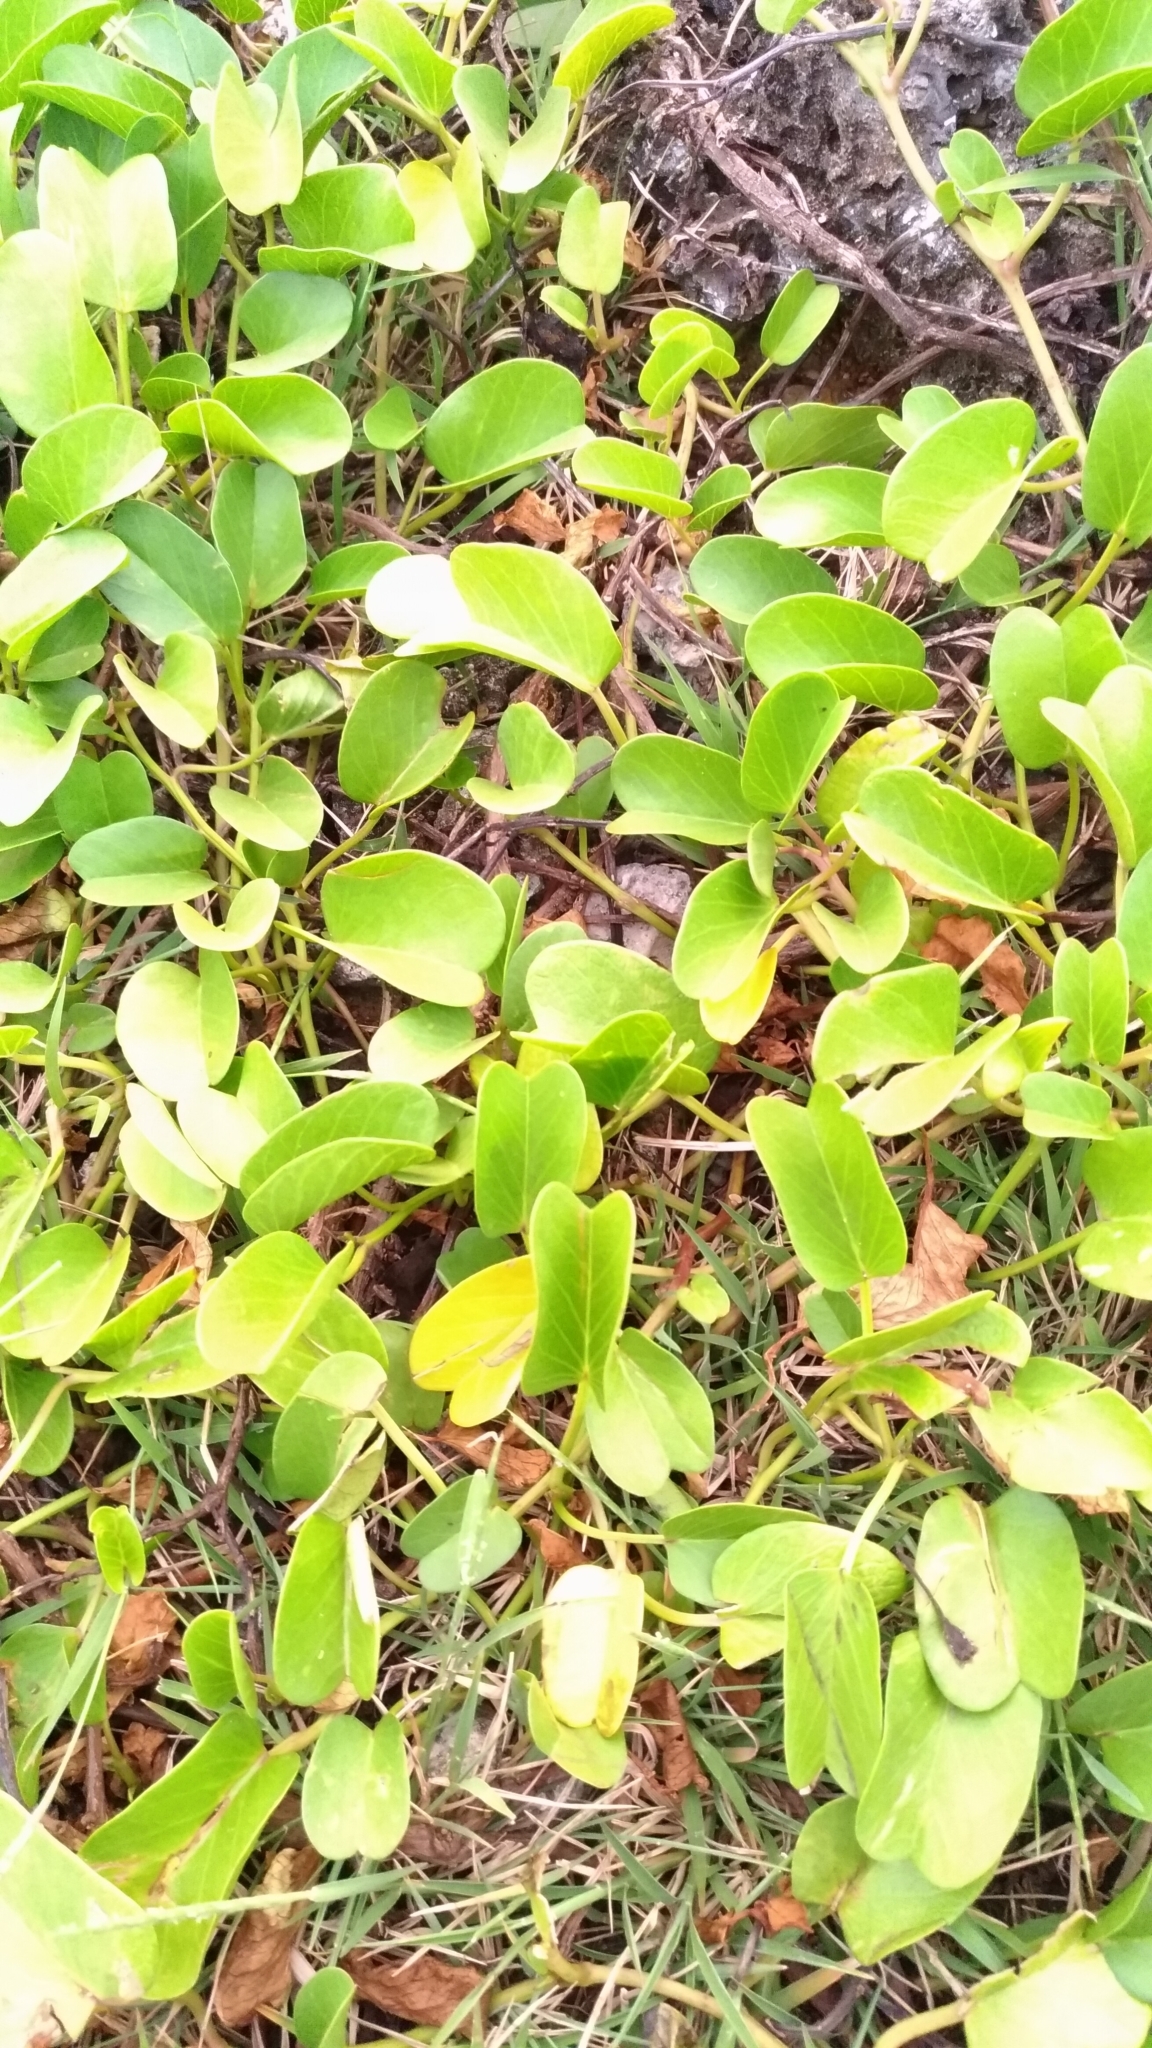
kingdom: Plantae
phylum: Tracheophyta
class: Magnoliopsida
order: Solanales
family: Convolvulaceae
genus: Ipomoea
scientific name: Ipomoea pes-caprae
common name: Beach morning glory
